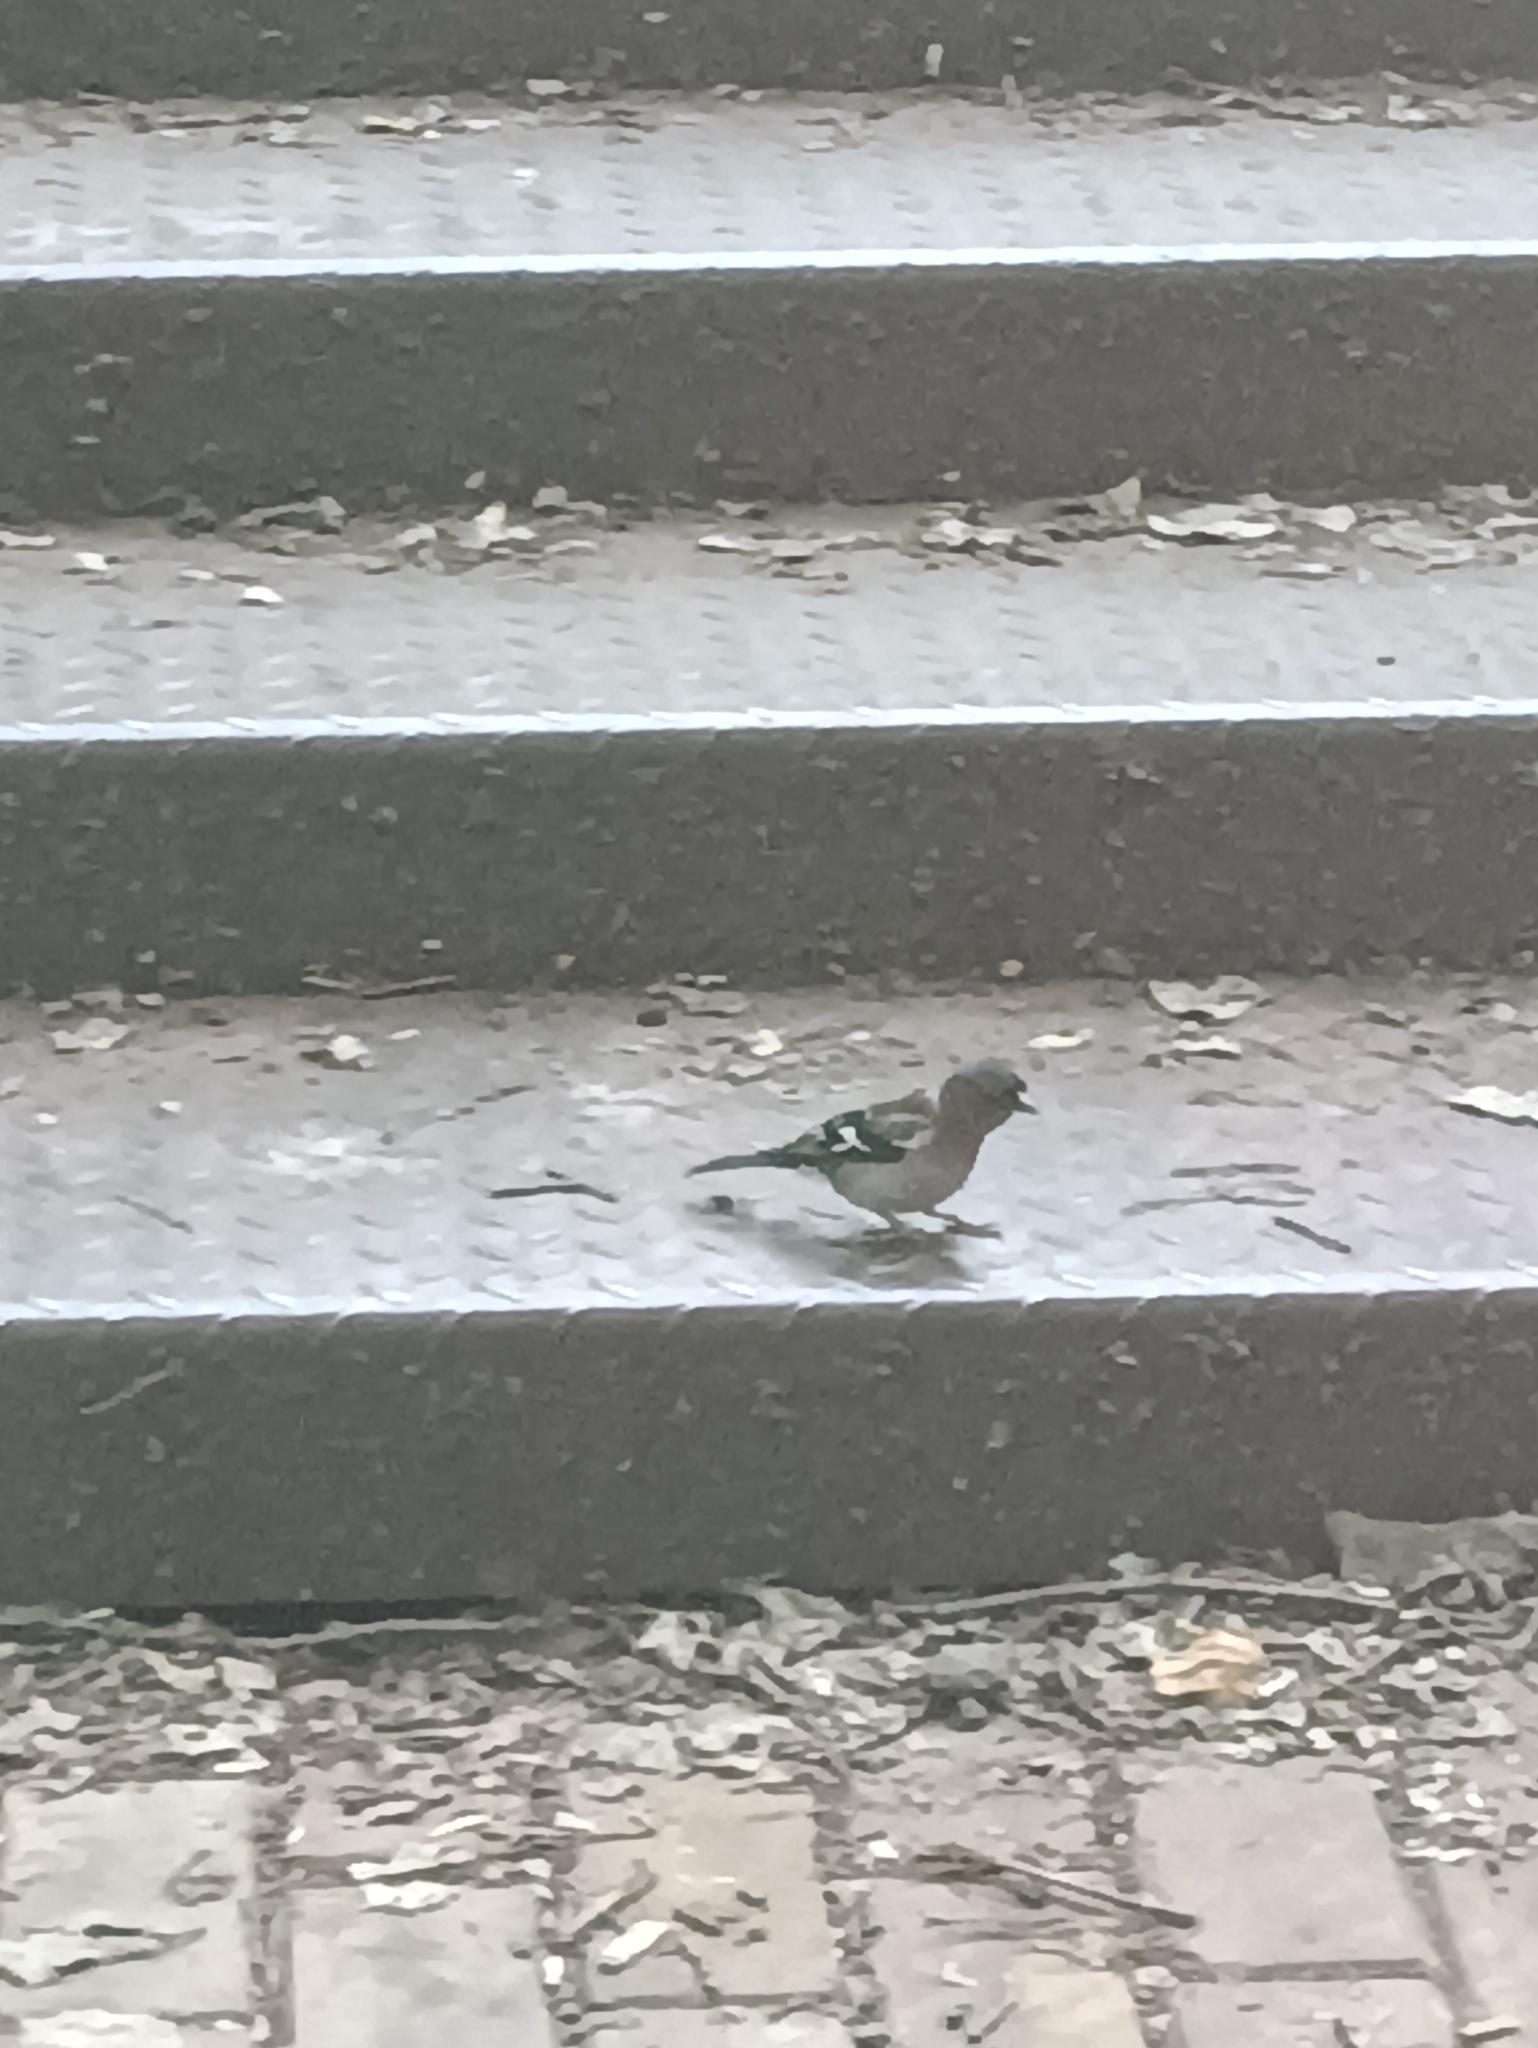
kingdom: Animalia
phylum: Chordata
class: Aves
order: Passeriformes
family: Fringillidae
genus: Fringilla
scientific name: Fringilla coelebs
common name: Common chaffinch
